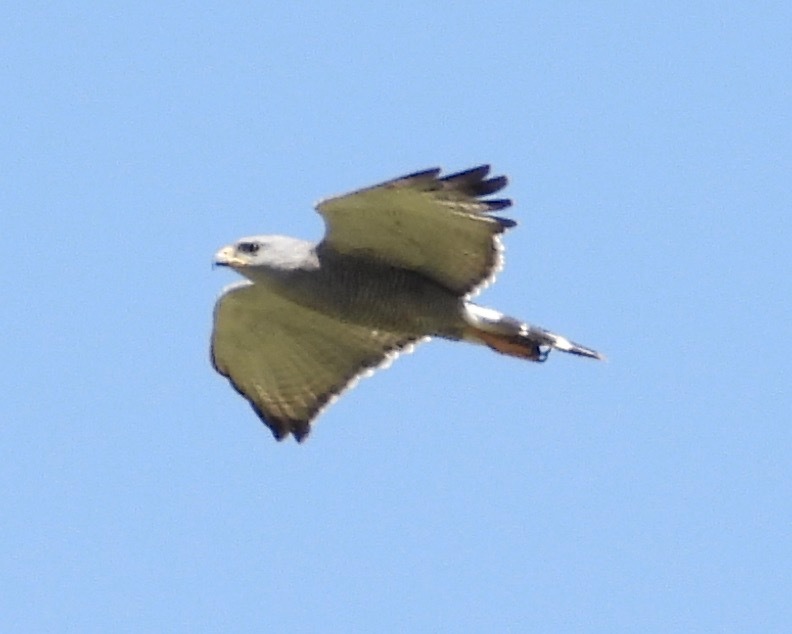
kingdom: Animalia
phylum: Chordata
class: Aves
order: Accipitriformes
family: Accipitridae
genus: Buteo
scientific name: Buteo nitidus
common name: Grey-lined hawk
